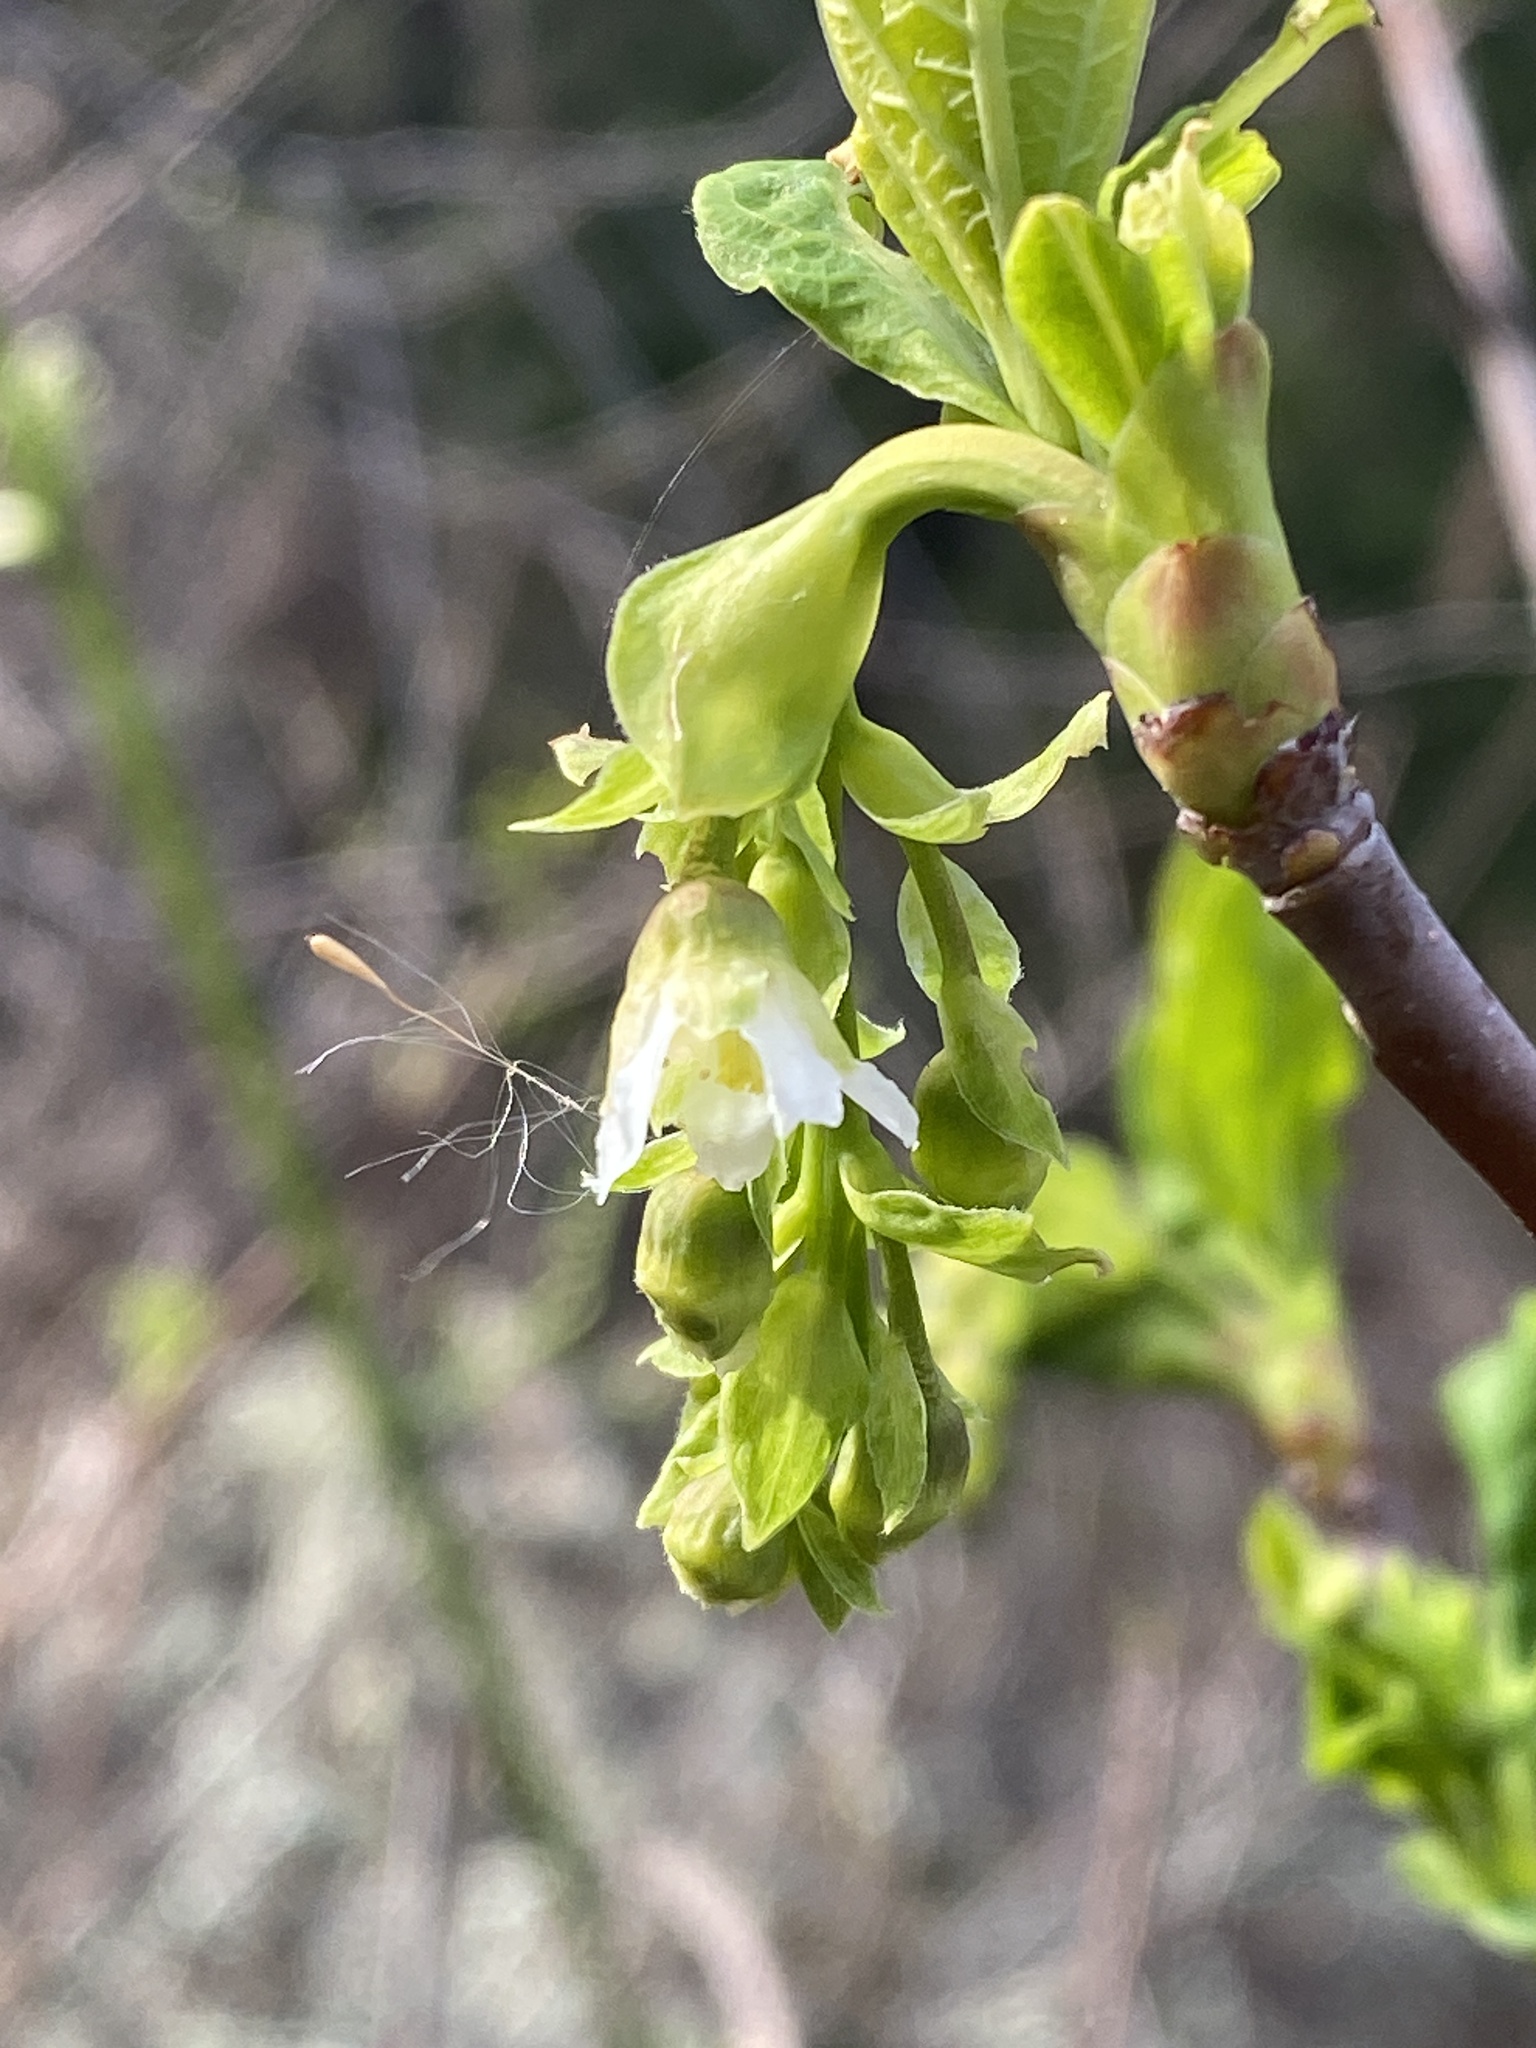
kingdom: Plantae
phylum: Tracheophyta
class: Magnoliopsida
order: Rosales
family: Rosaceae
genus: Oemleria
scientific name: Oemleria cerasiformis
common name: Osoberry
